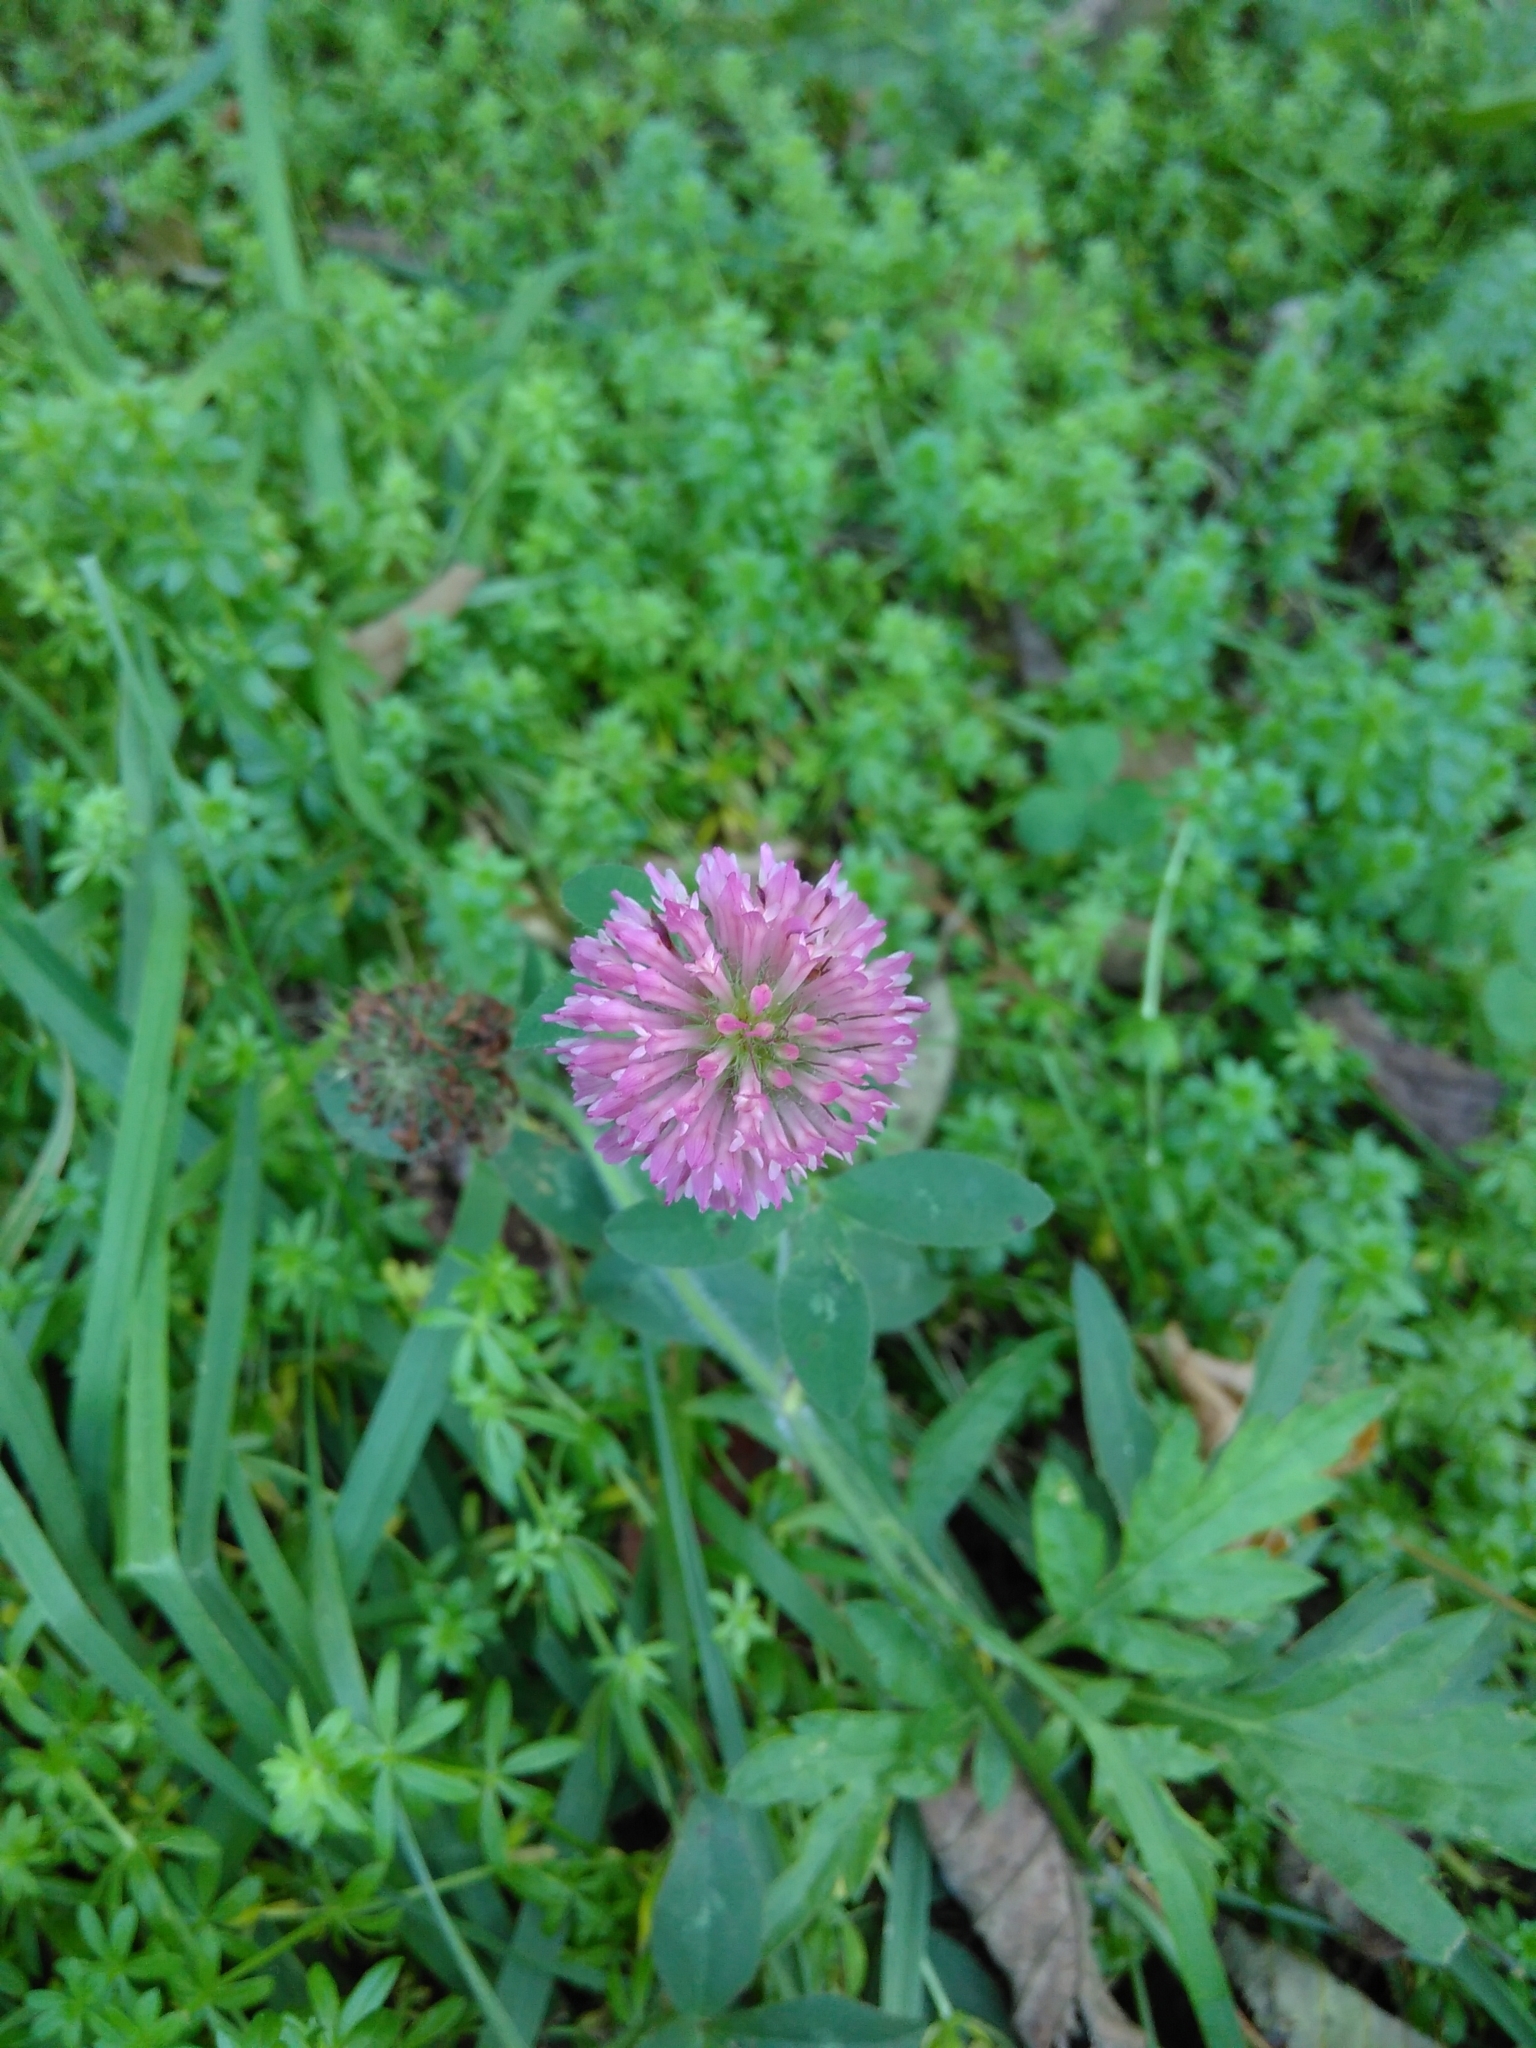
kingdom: Plantae
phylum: Tracheophyta
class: Magnoliopsida
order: Fabales
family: Fabaceae
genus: Trifolium
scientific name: Trifolium pratense
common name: Red clover
